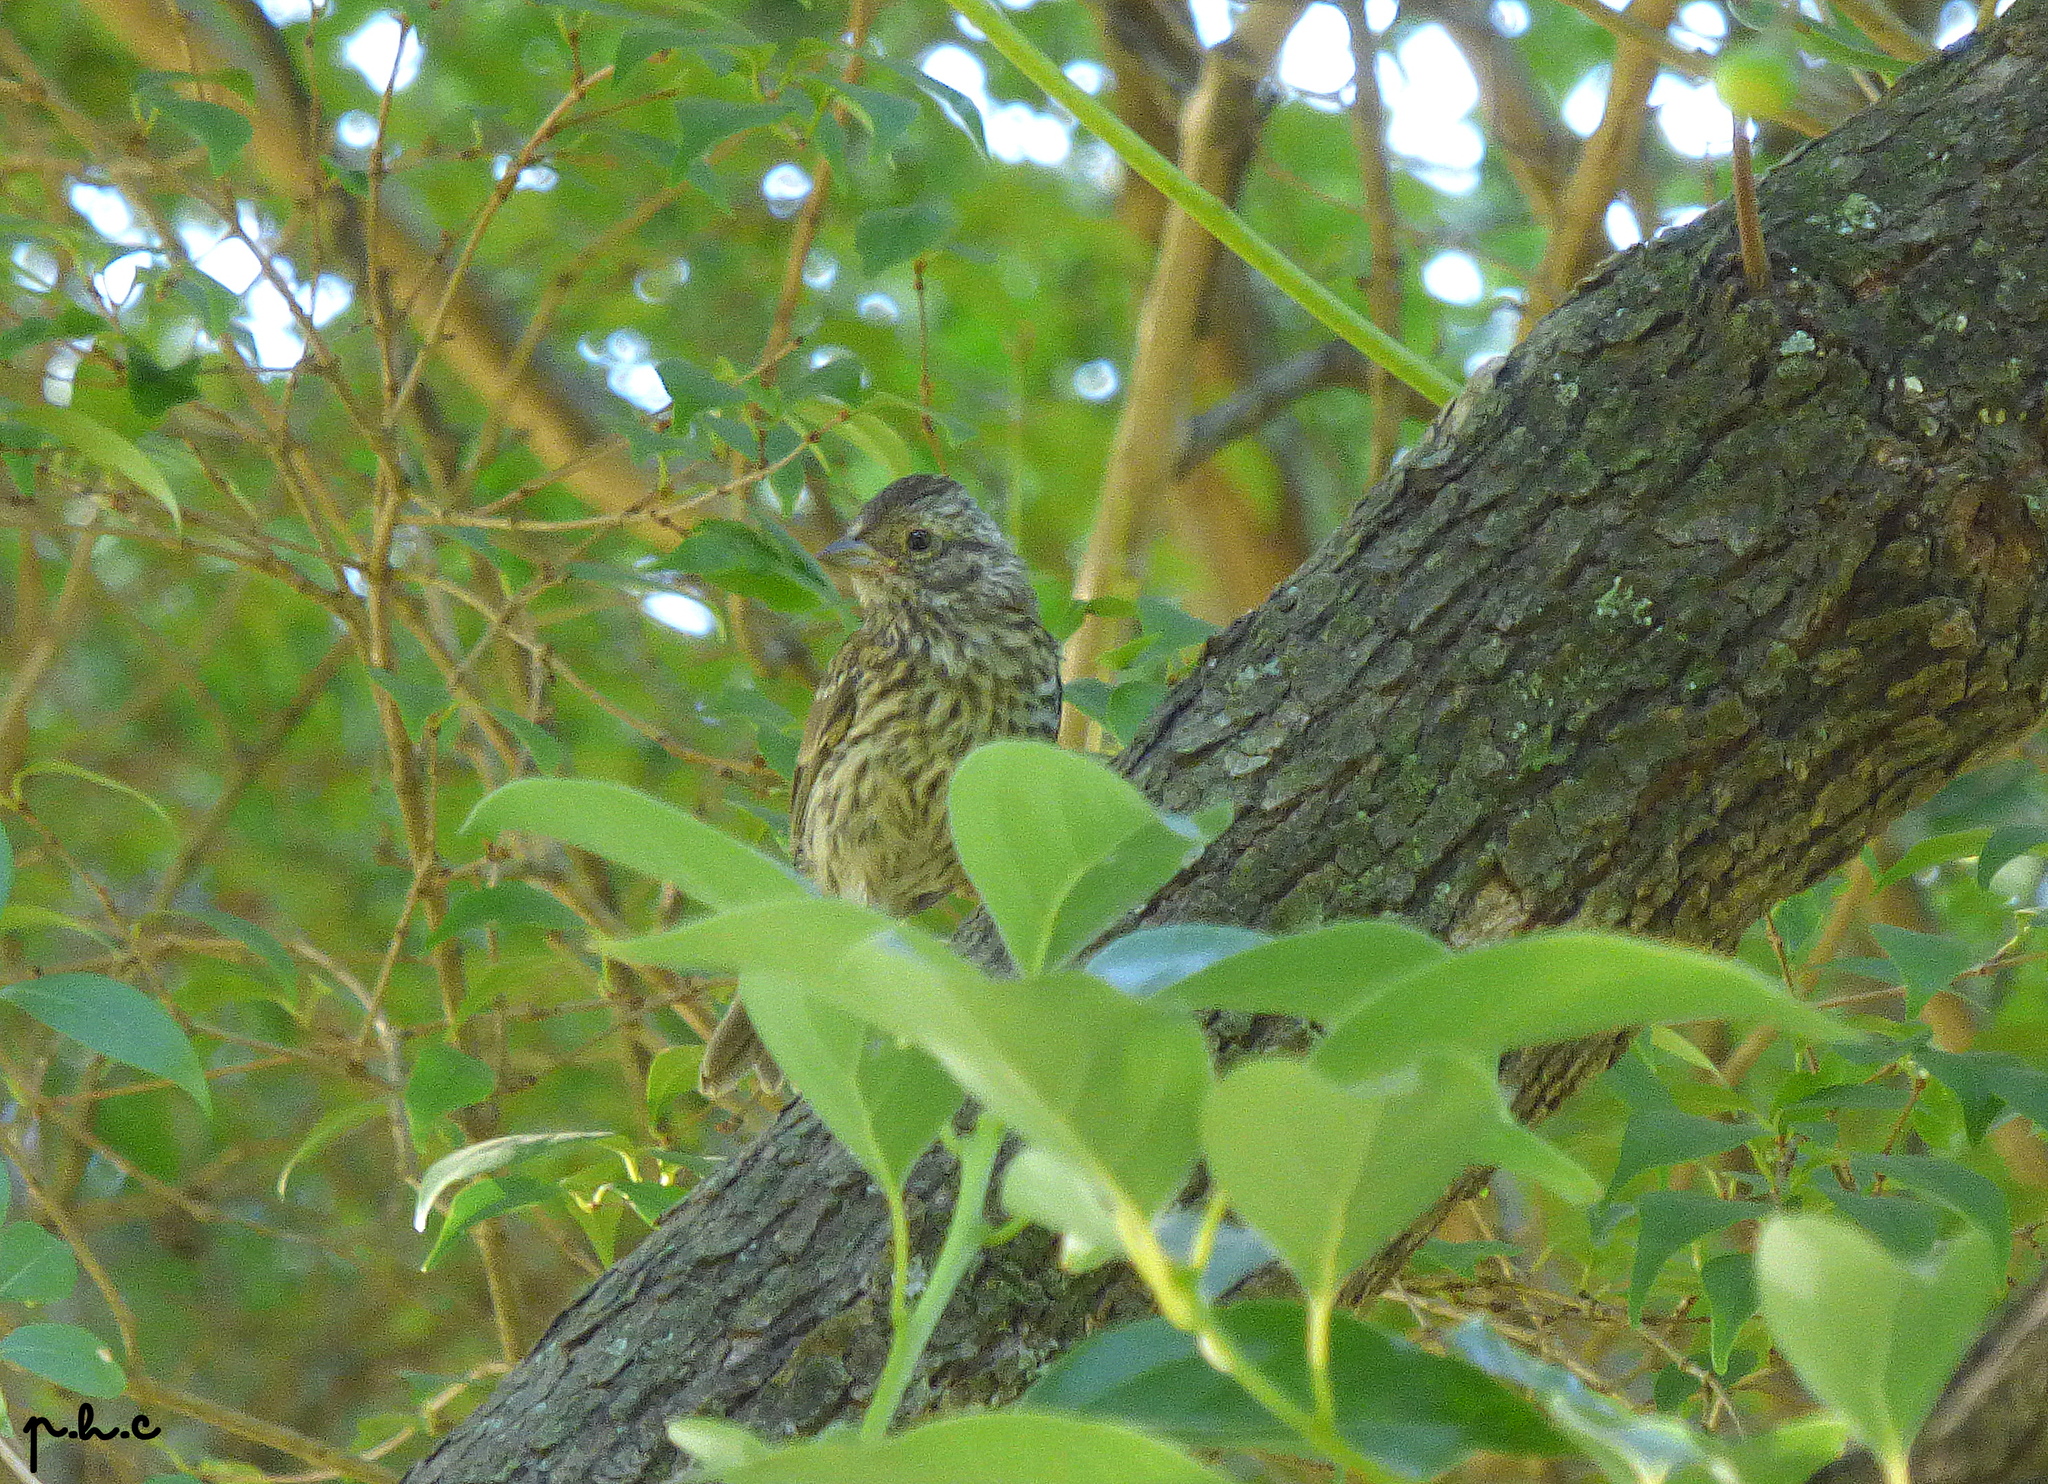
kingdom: Animalia
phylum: Chordata
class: Aves
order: Passeriformes
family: Passerellidae
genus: Zonotrichia
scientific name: Zonotrichia capensis
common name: Rufous-collared sparrow
